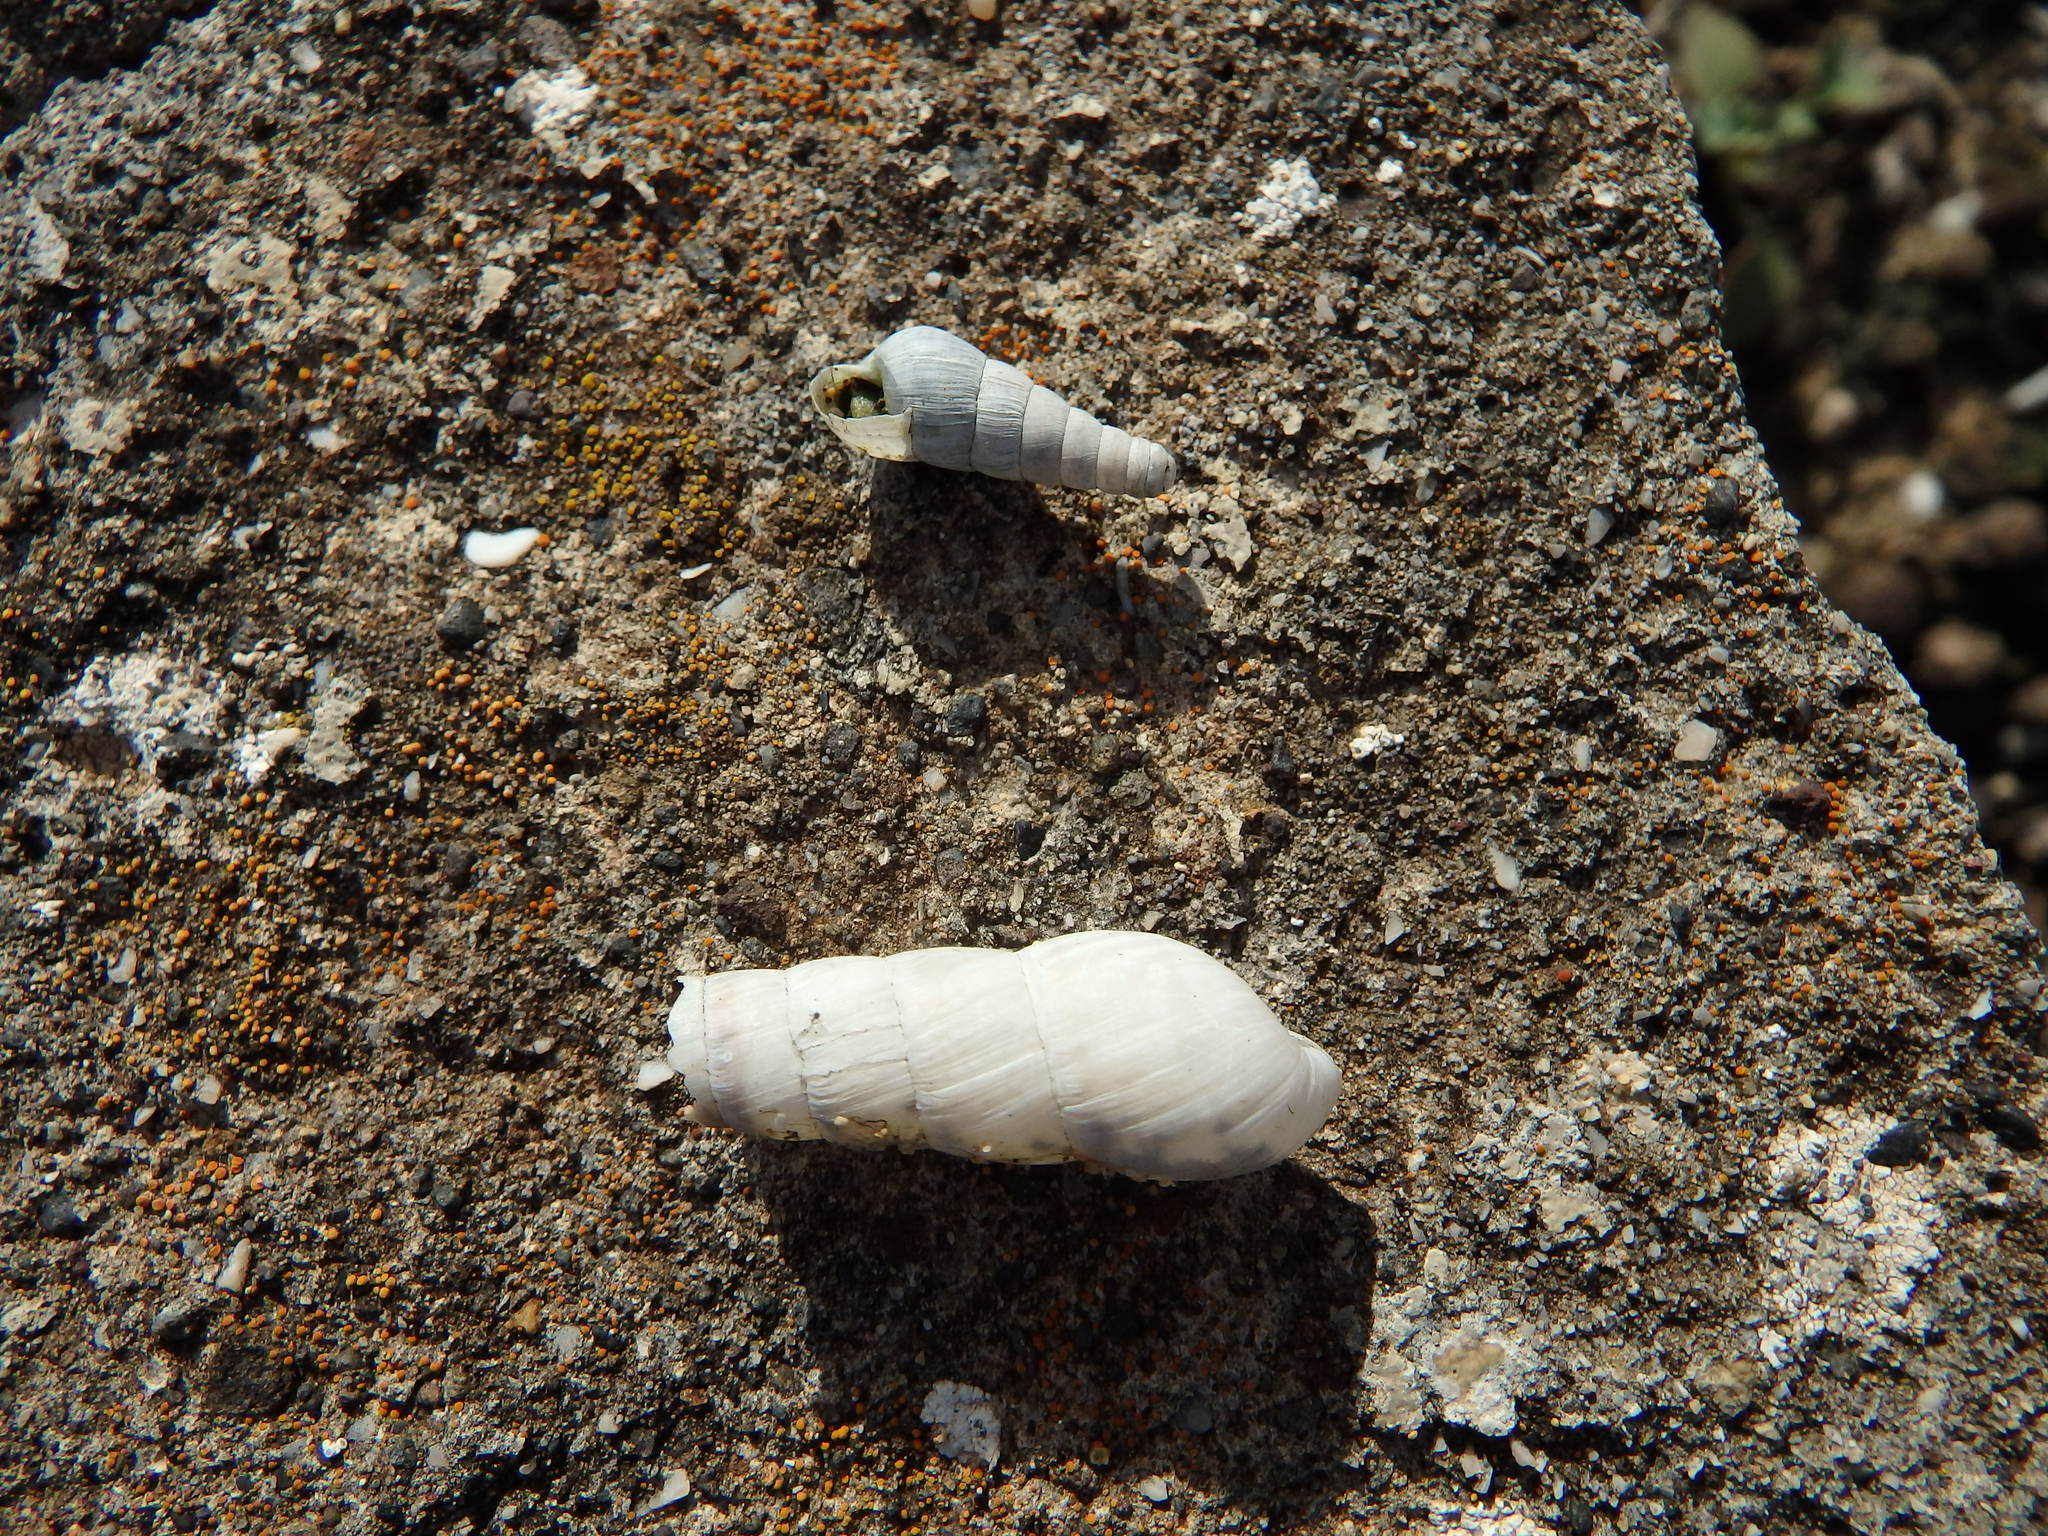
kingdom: Animalia
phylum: Mollusca
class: Gastropoda
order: Stylommatophora
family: Achatinidae
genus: Rumina
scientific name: Rumina decollata
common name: Decollate snail
